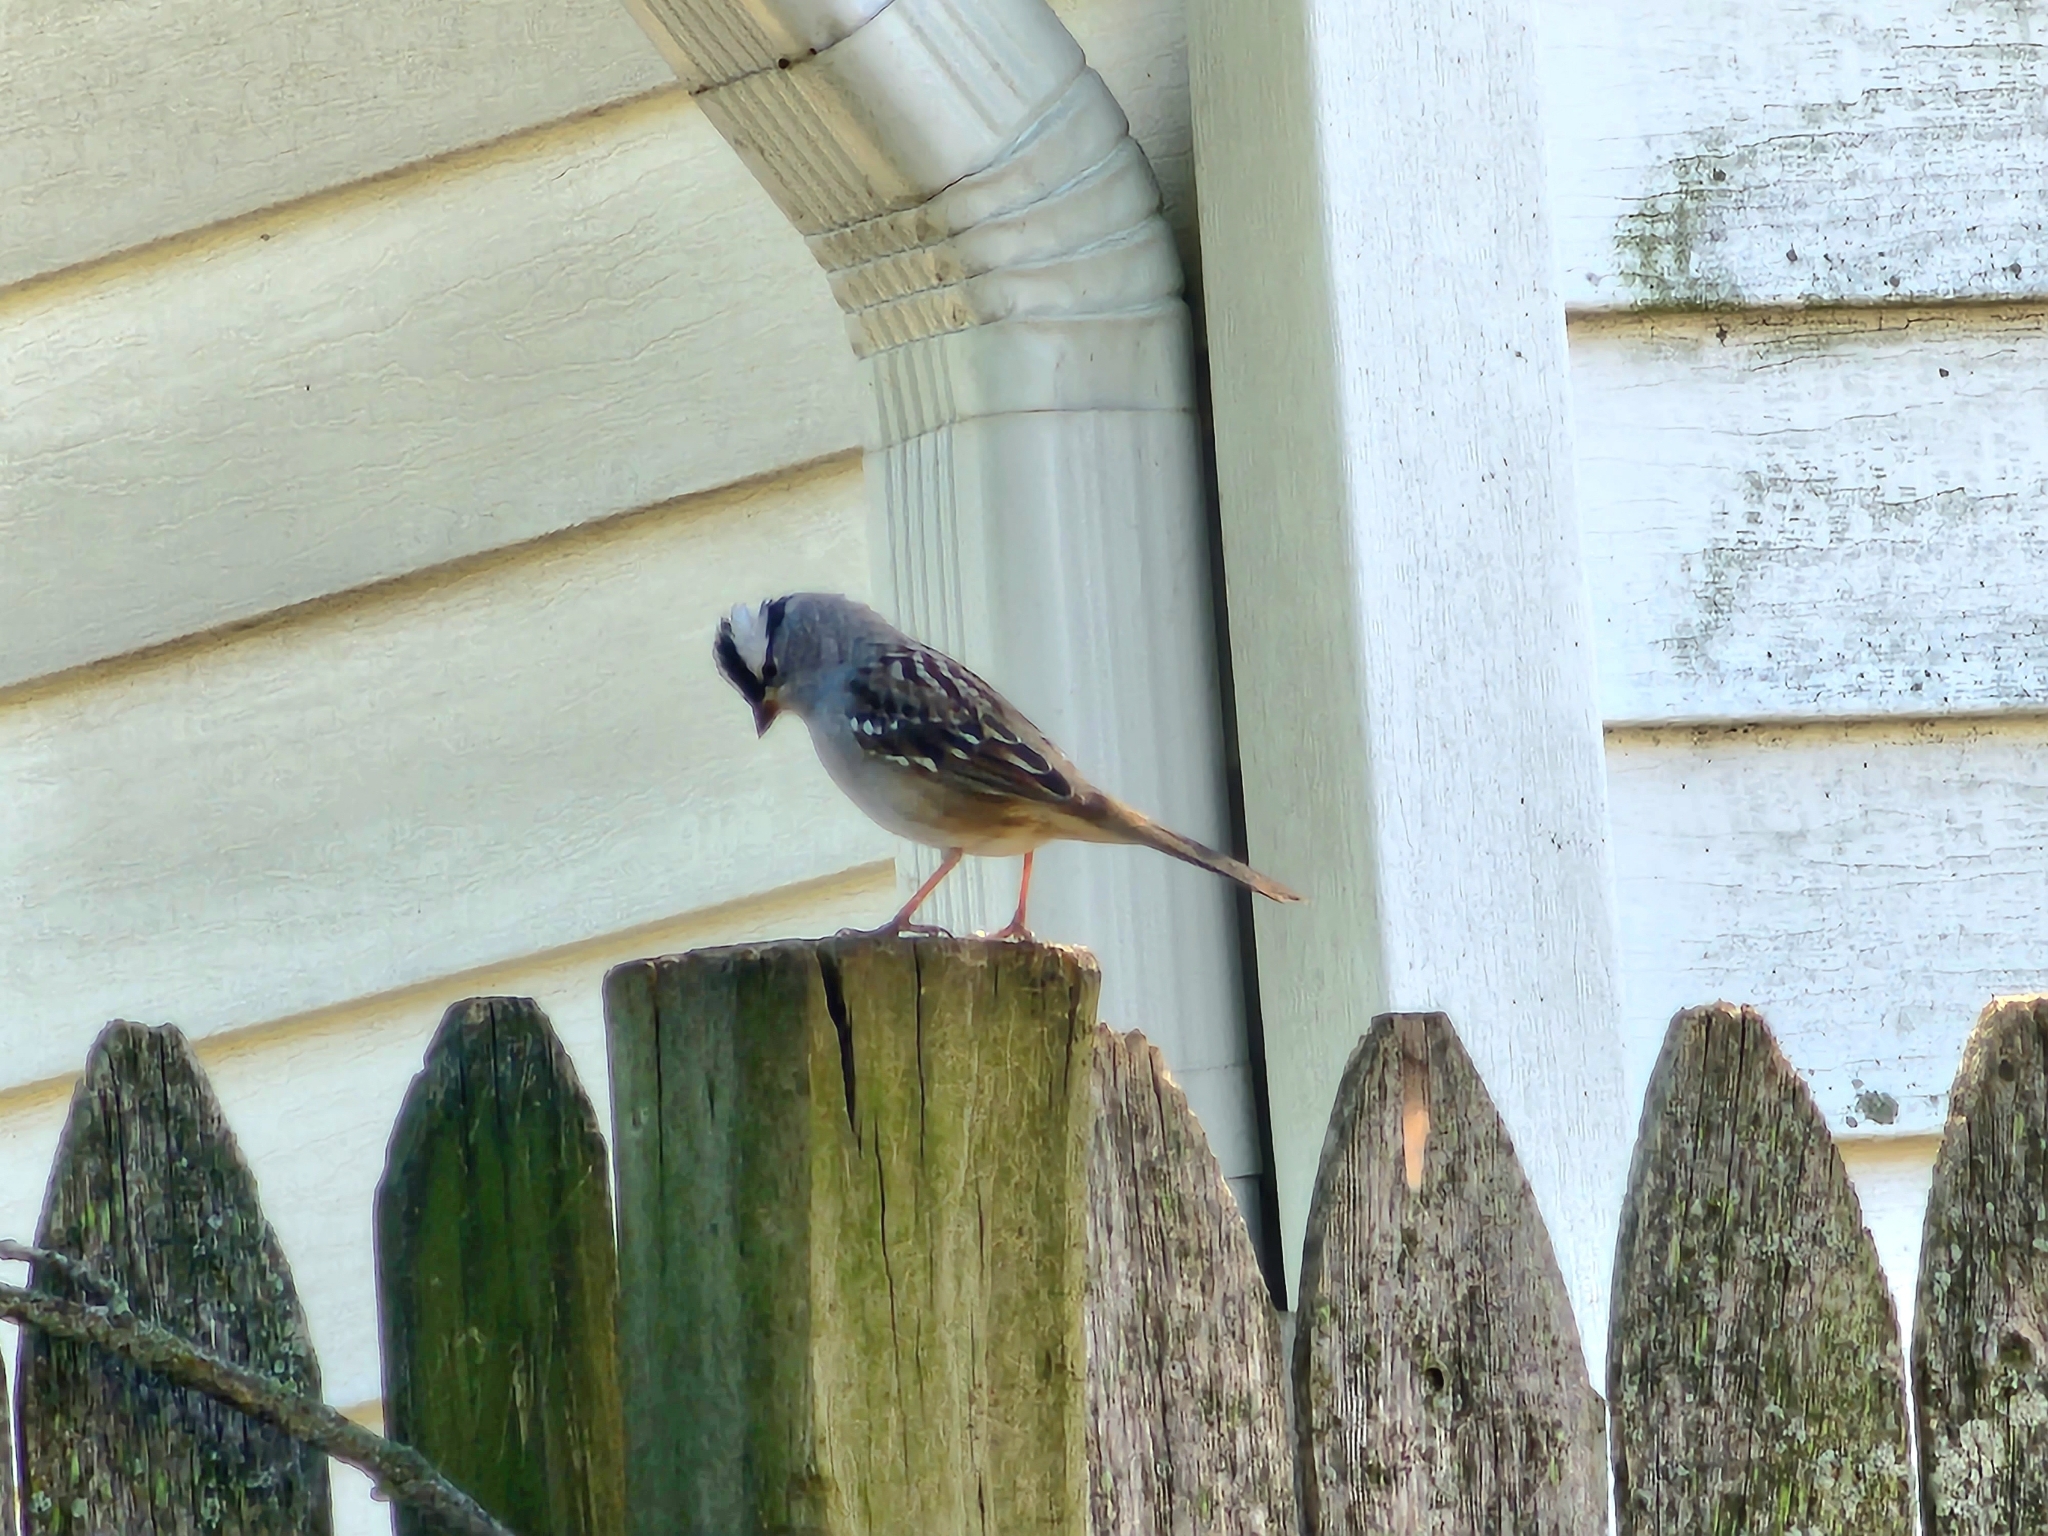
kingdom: Animalia
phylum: Chordata
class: Aves
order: Passeriformes
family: Passerellidae
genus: Zonotrichia
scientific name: Zonotrichia leucophrys
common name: White-crowned sparrow
